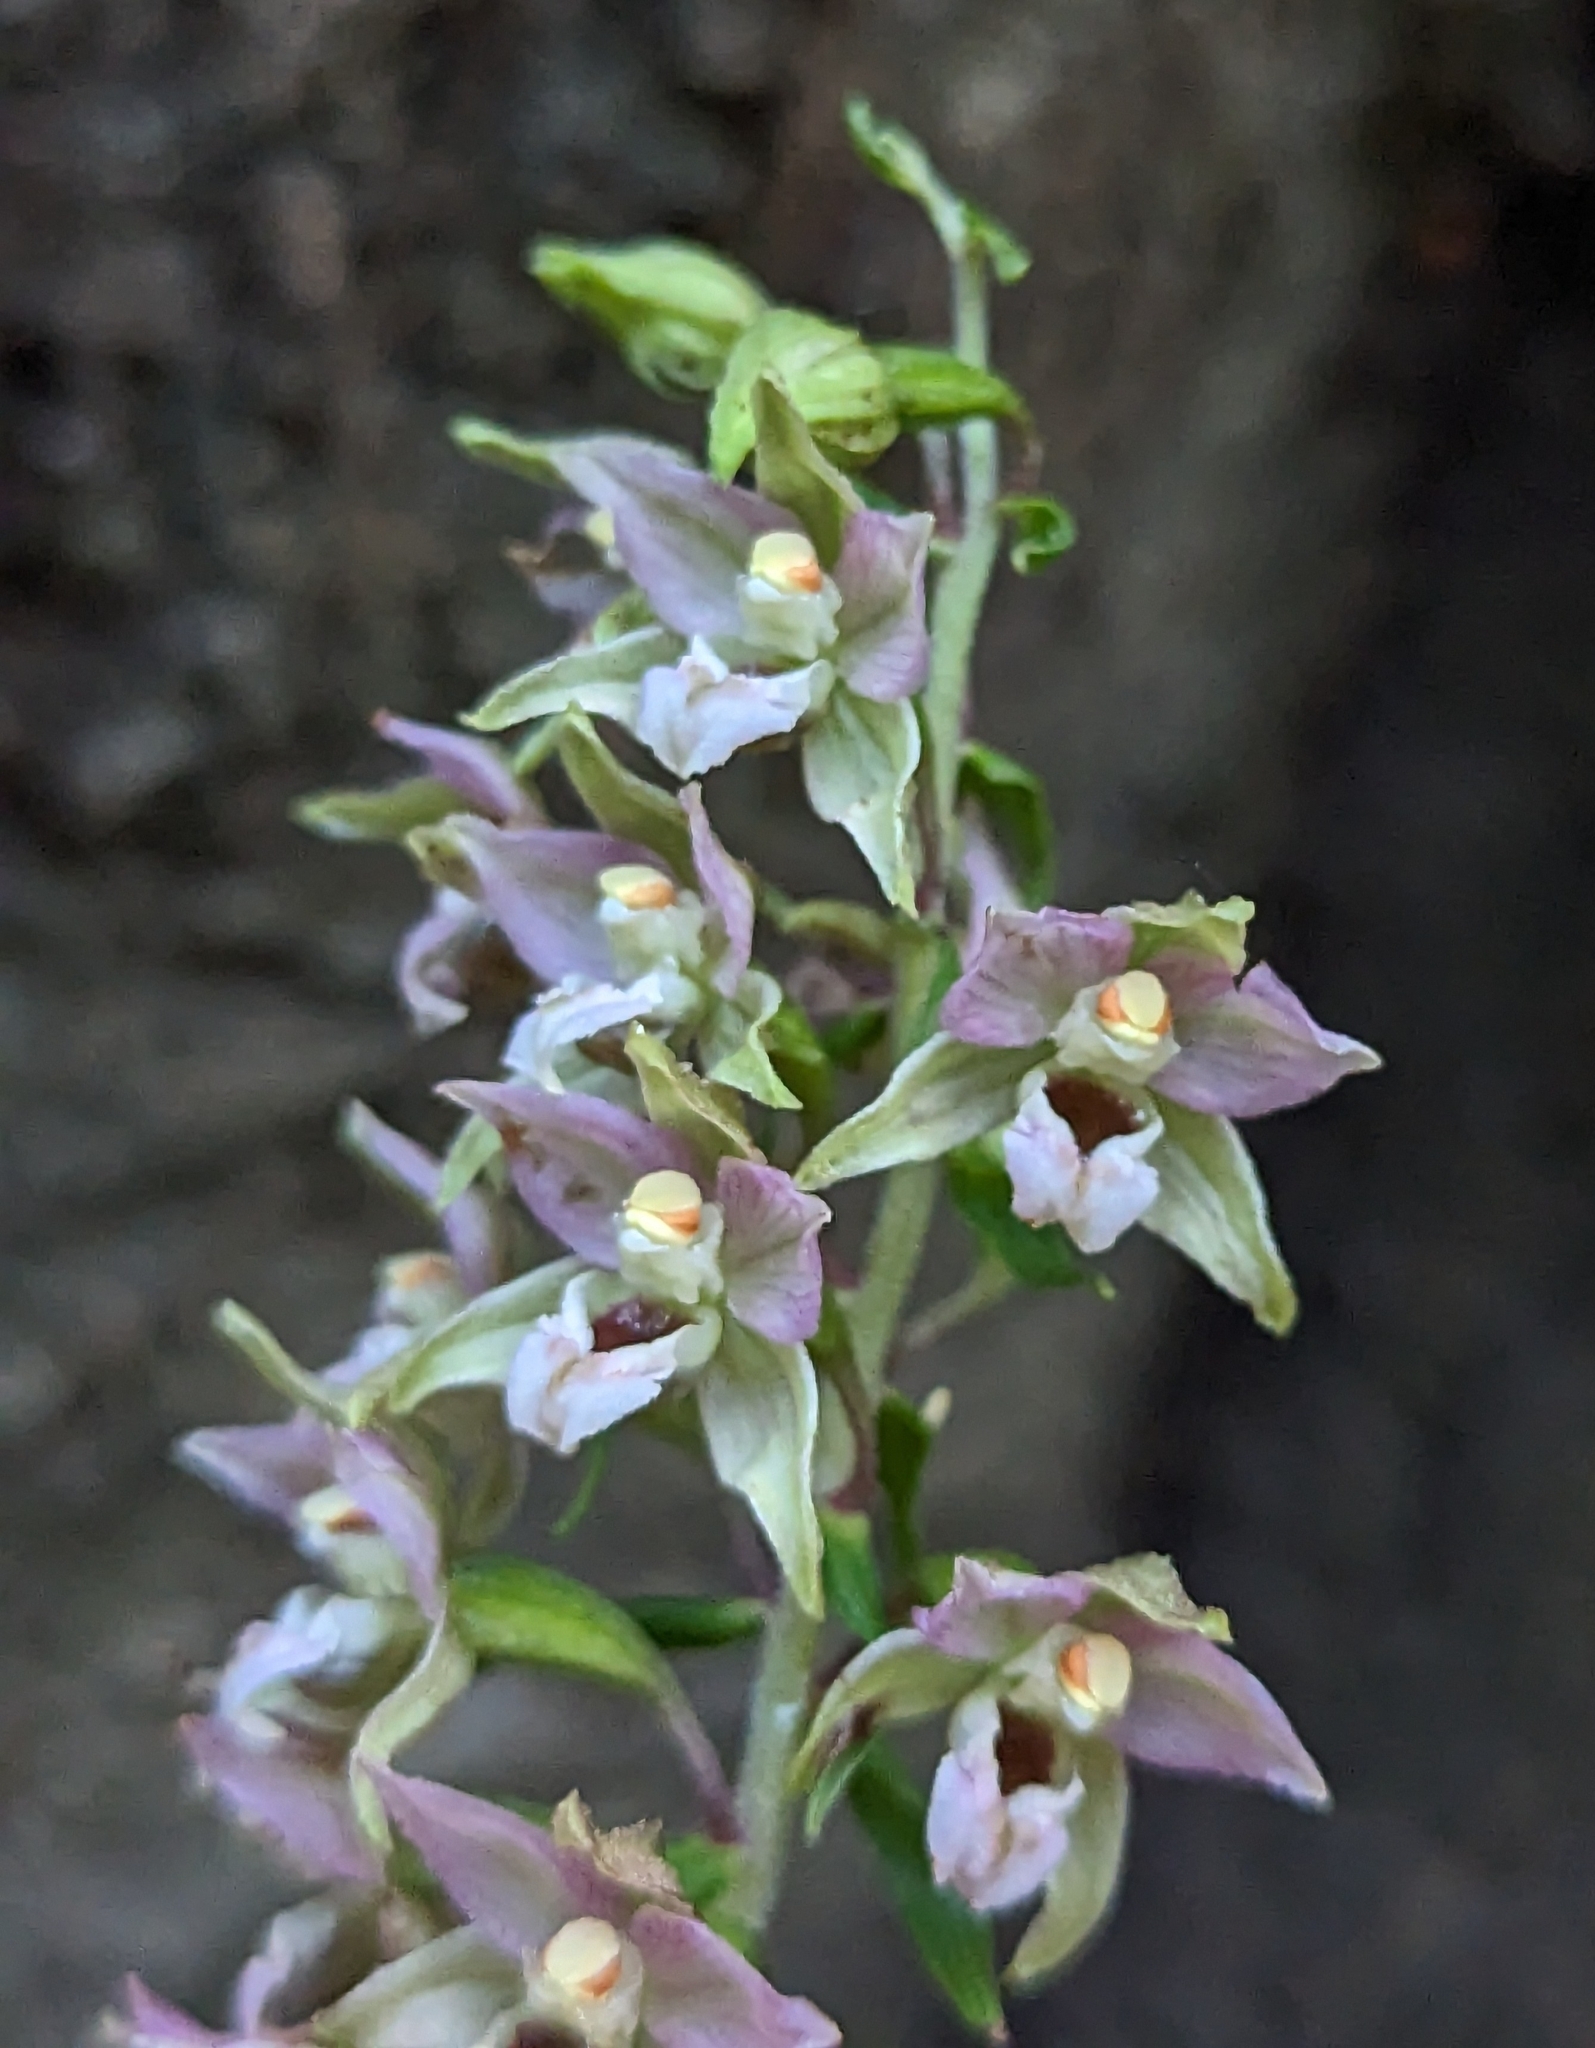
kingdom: Plantae
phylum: Tracheophyta
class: Liliopsida
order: Asparagales
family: Orchidaceae
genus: Epipactis
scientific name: Epipactis helleborine
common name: Broad-leaved helleborine
